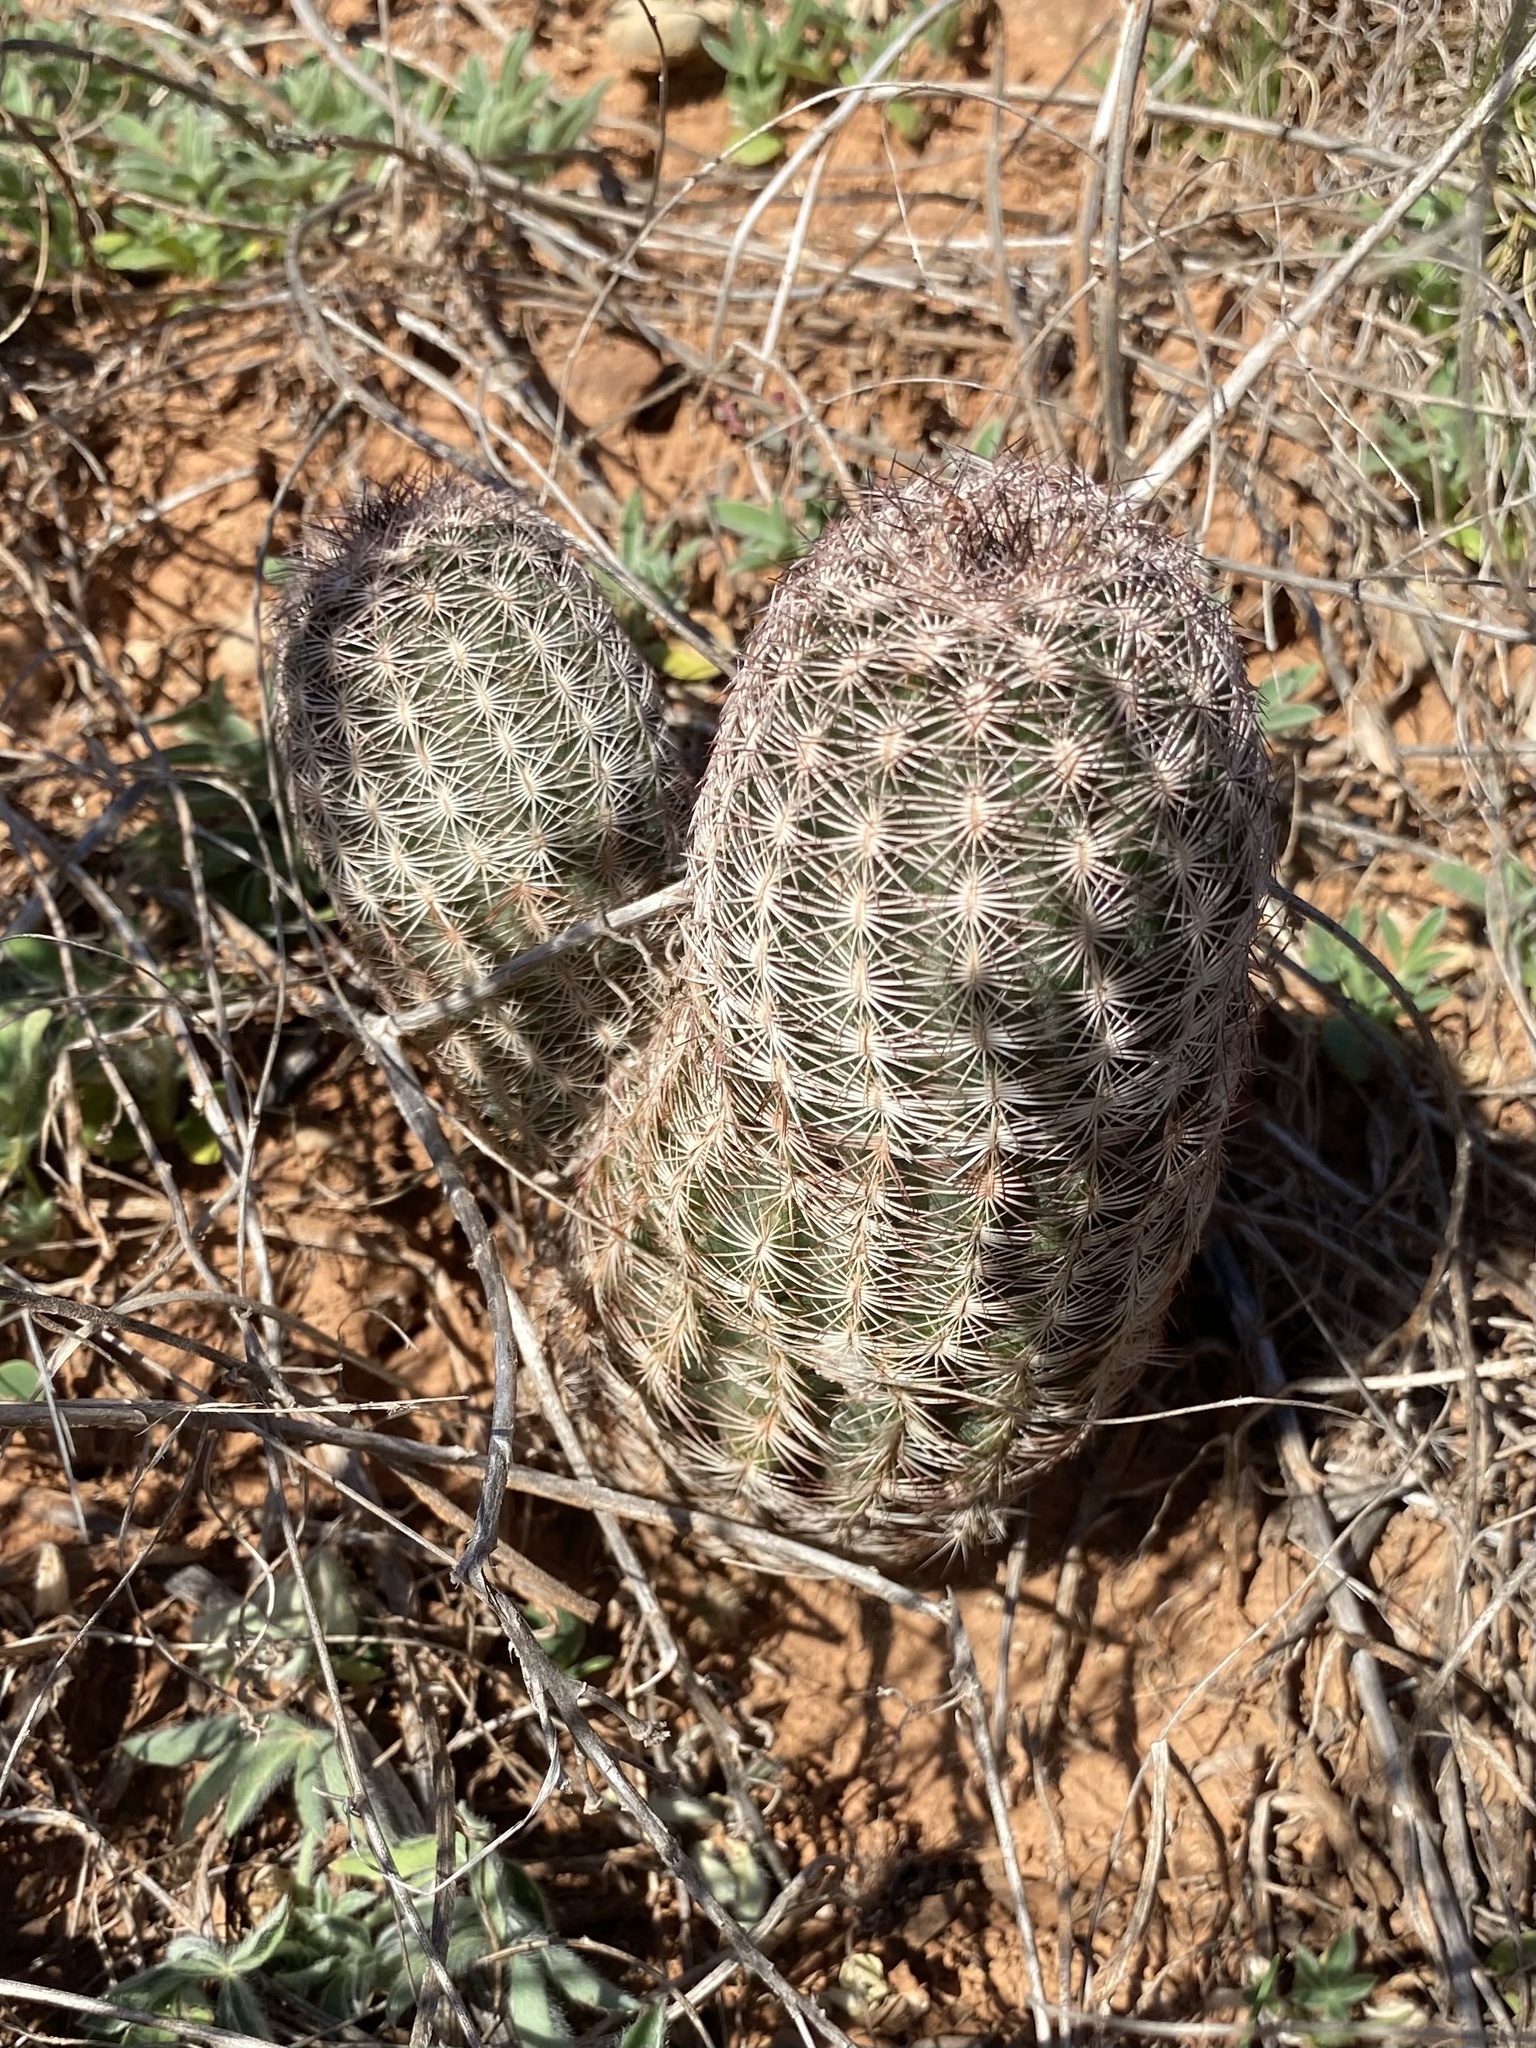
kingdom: Plantae
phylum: Tracheophyta
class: Magnoliopsida
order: Caryophyllales
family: Cactaceae
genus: Echinocereus
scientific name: Echinocereus reichenbachii
